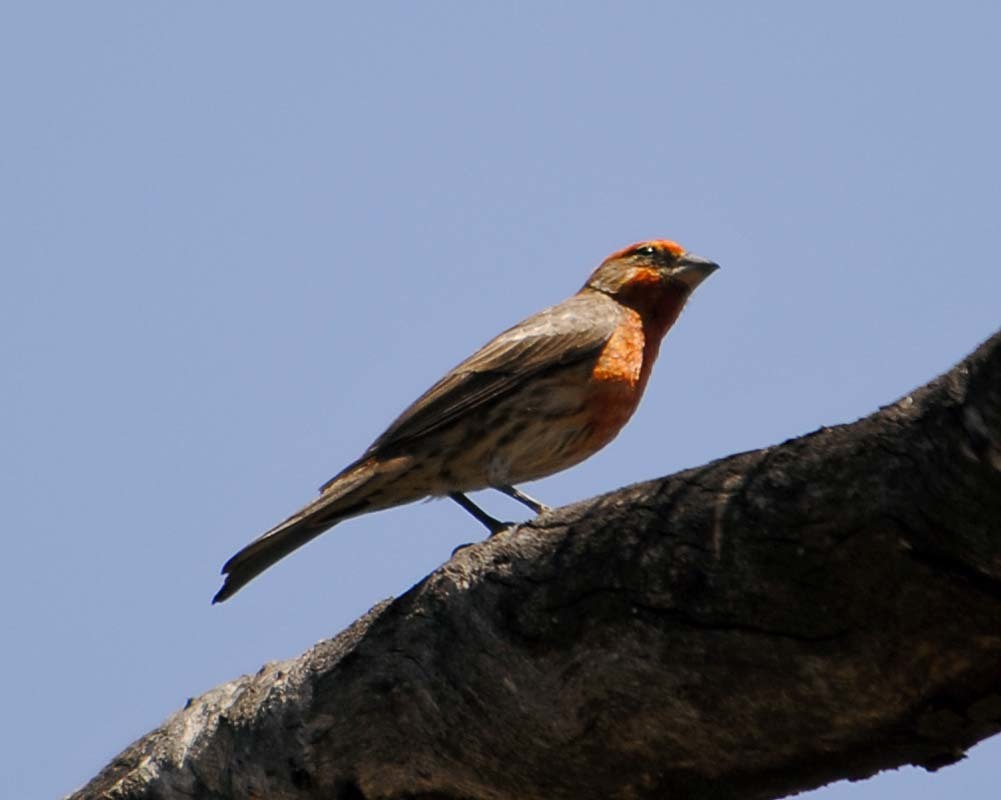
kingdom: Animalia
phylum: Chordata
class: Aves
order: Passeriformes
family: Fringillidae
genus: Haemorhous
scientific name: Haemorhous mexicanus
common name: House finch
